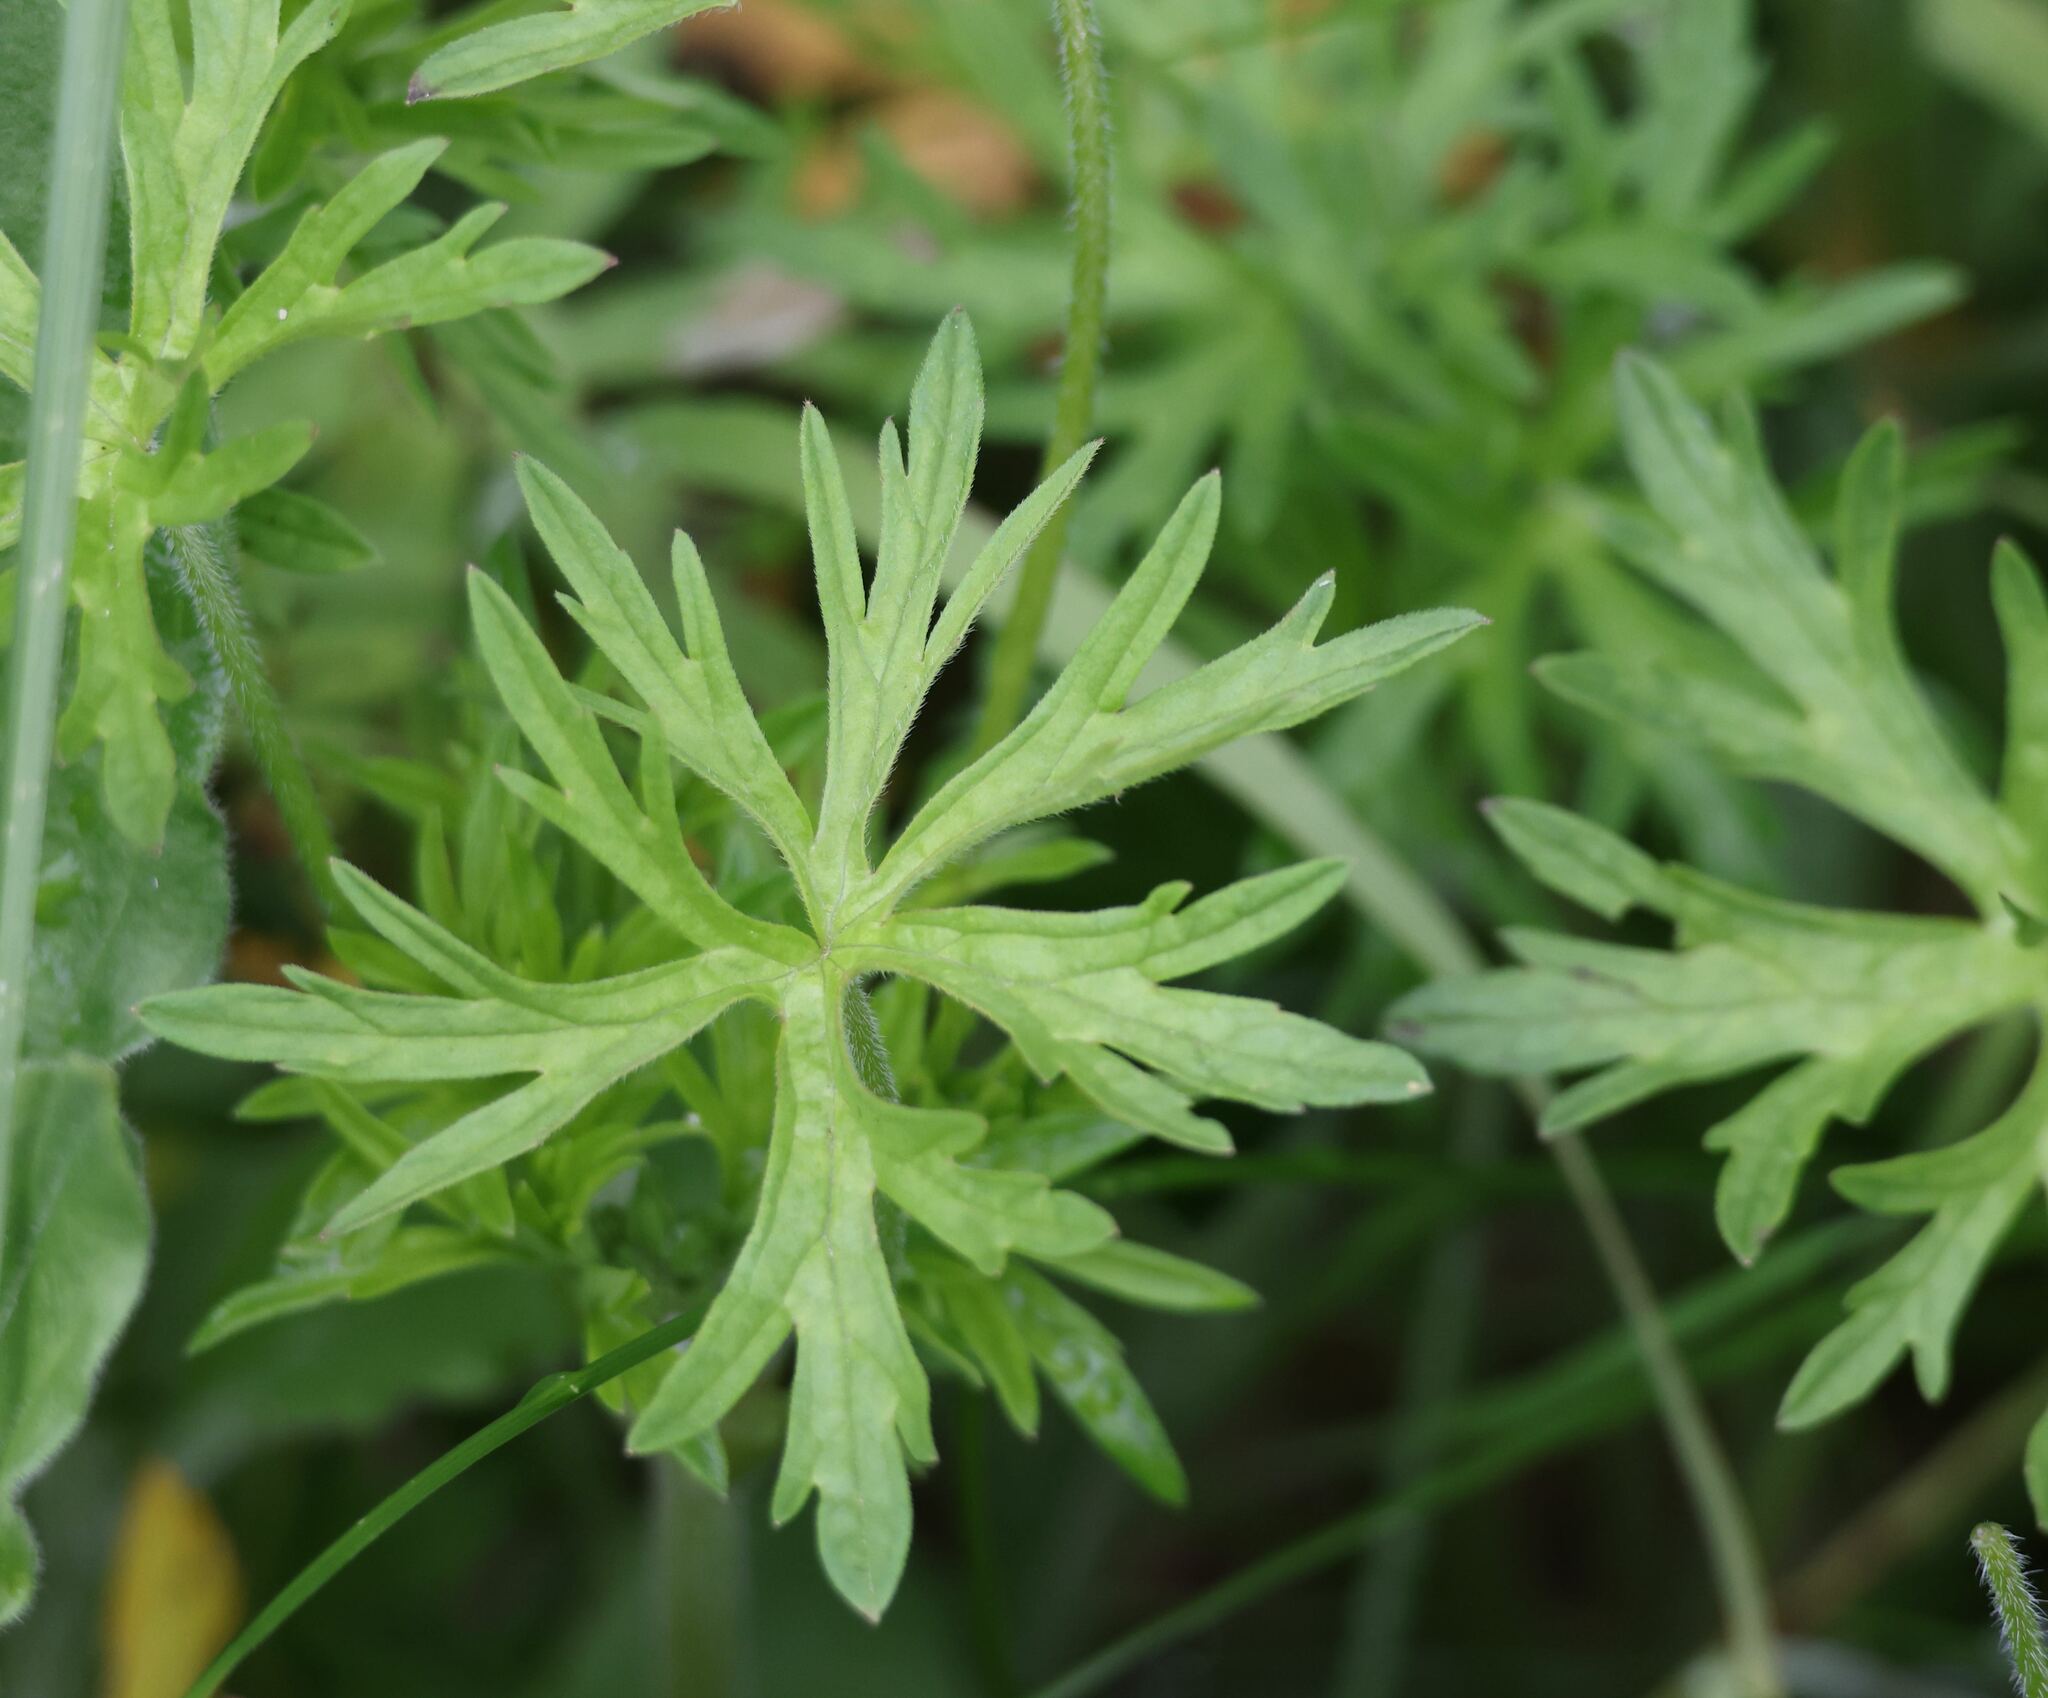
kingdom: Plantae
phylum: Tracheophyta
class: Magnoliopsida
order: Geraniales
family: Geraniaceae
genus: Geranium
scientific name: Geranium dissectum
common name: Cut-leaved crane's-bill
